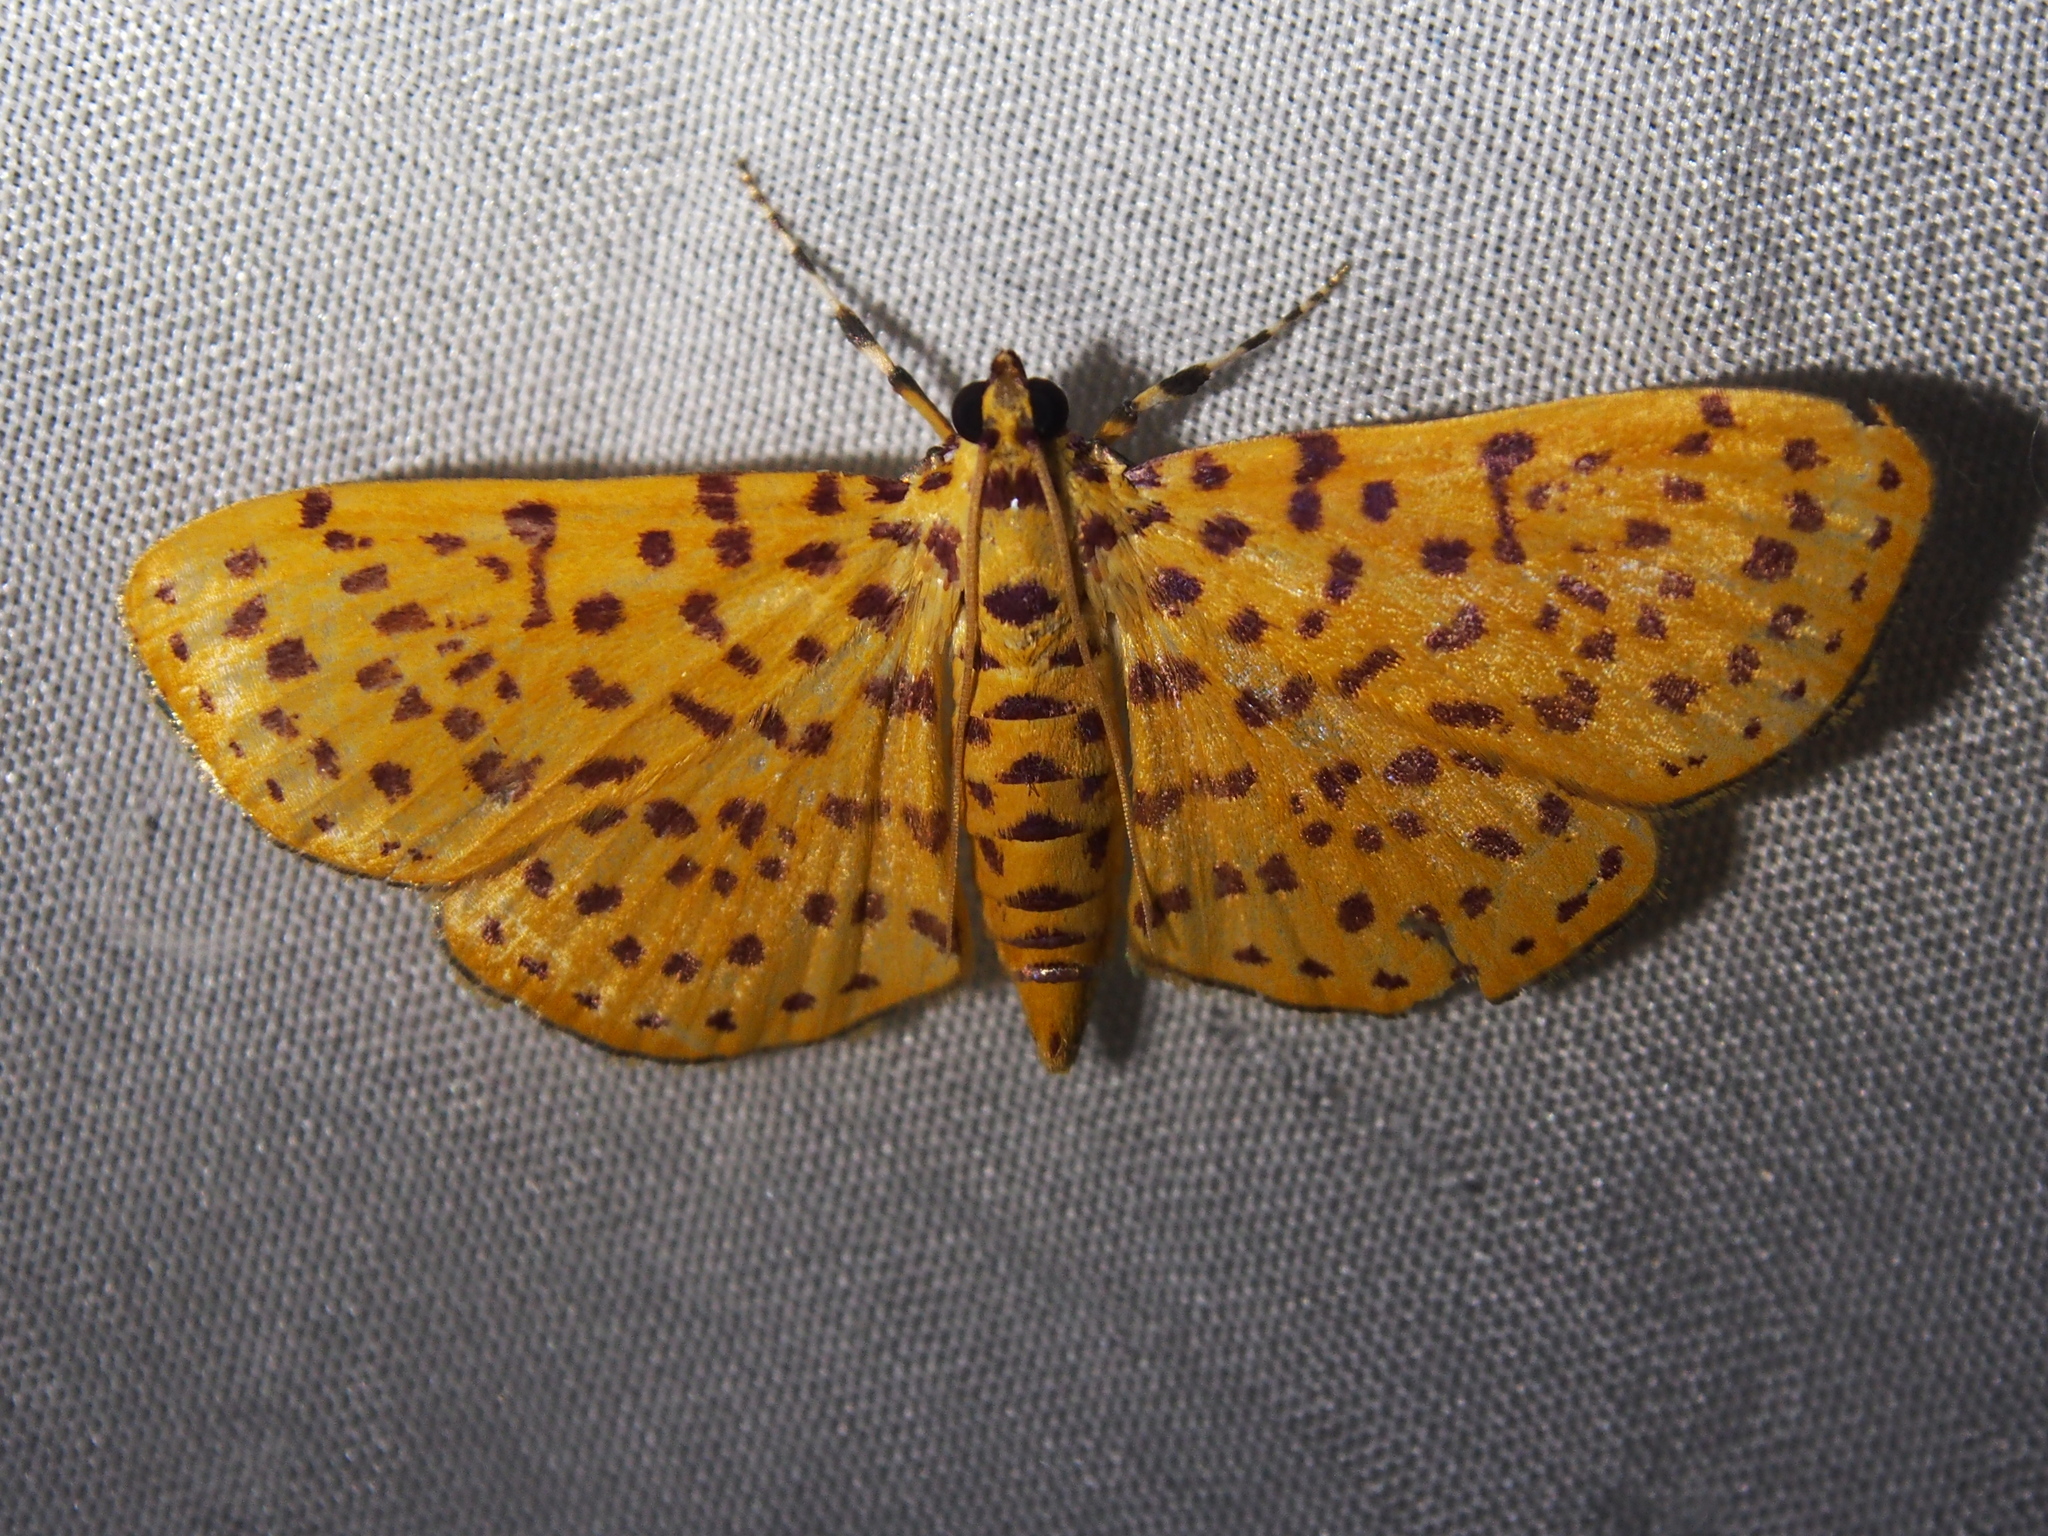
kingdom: Animalia
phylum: Arthropoda
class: Insecta
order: Lepidoptera
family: Crambidae
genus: Polygrammodes
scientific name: Polygrammodes elevata
